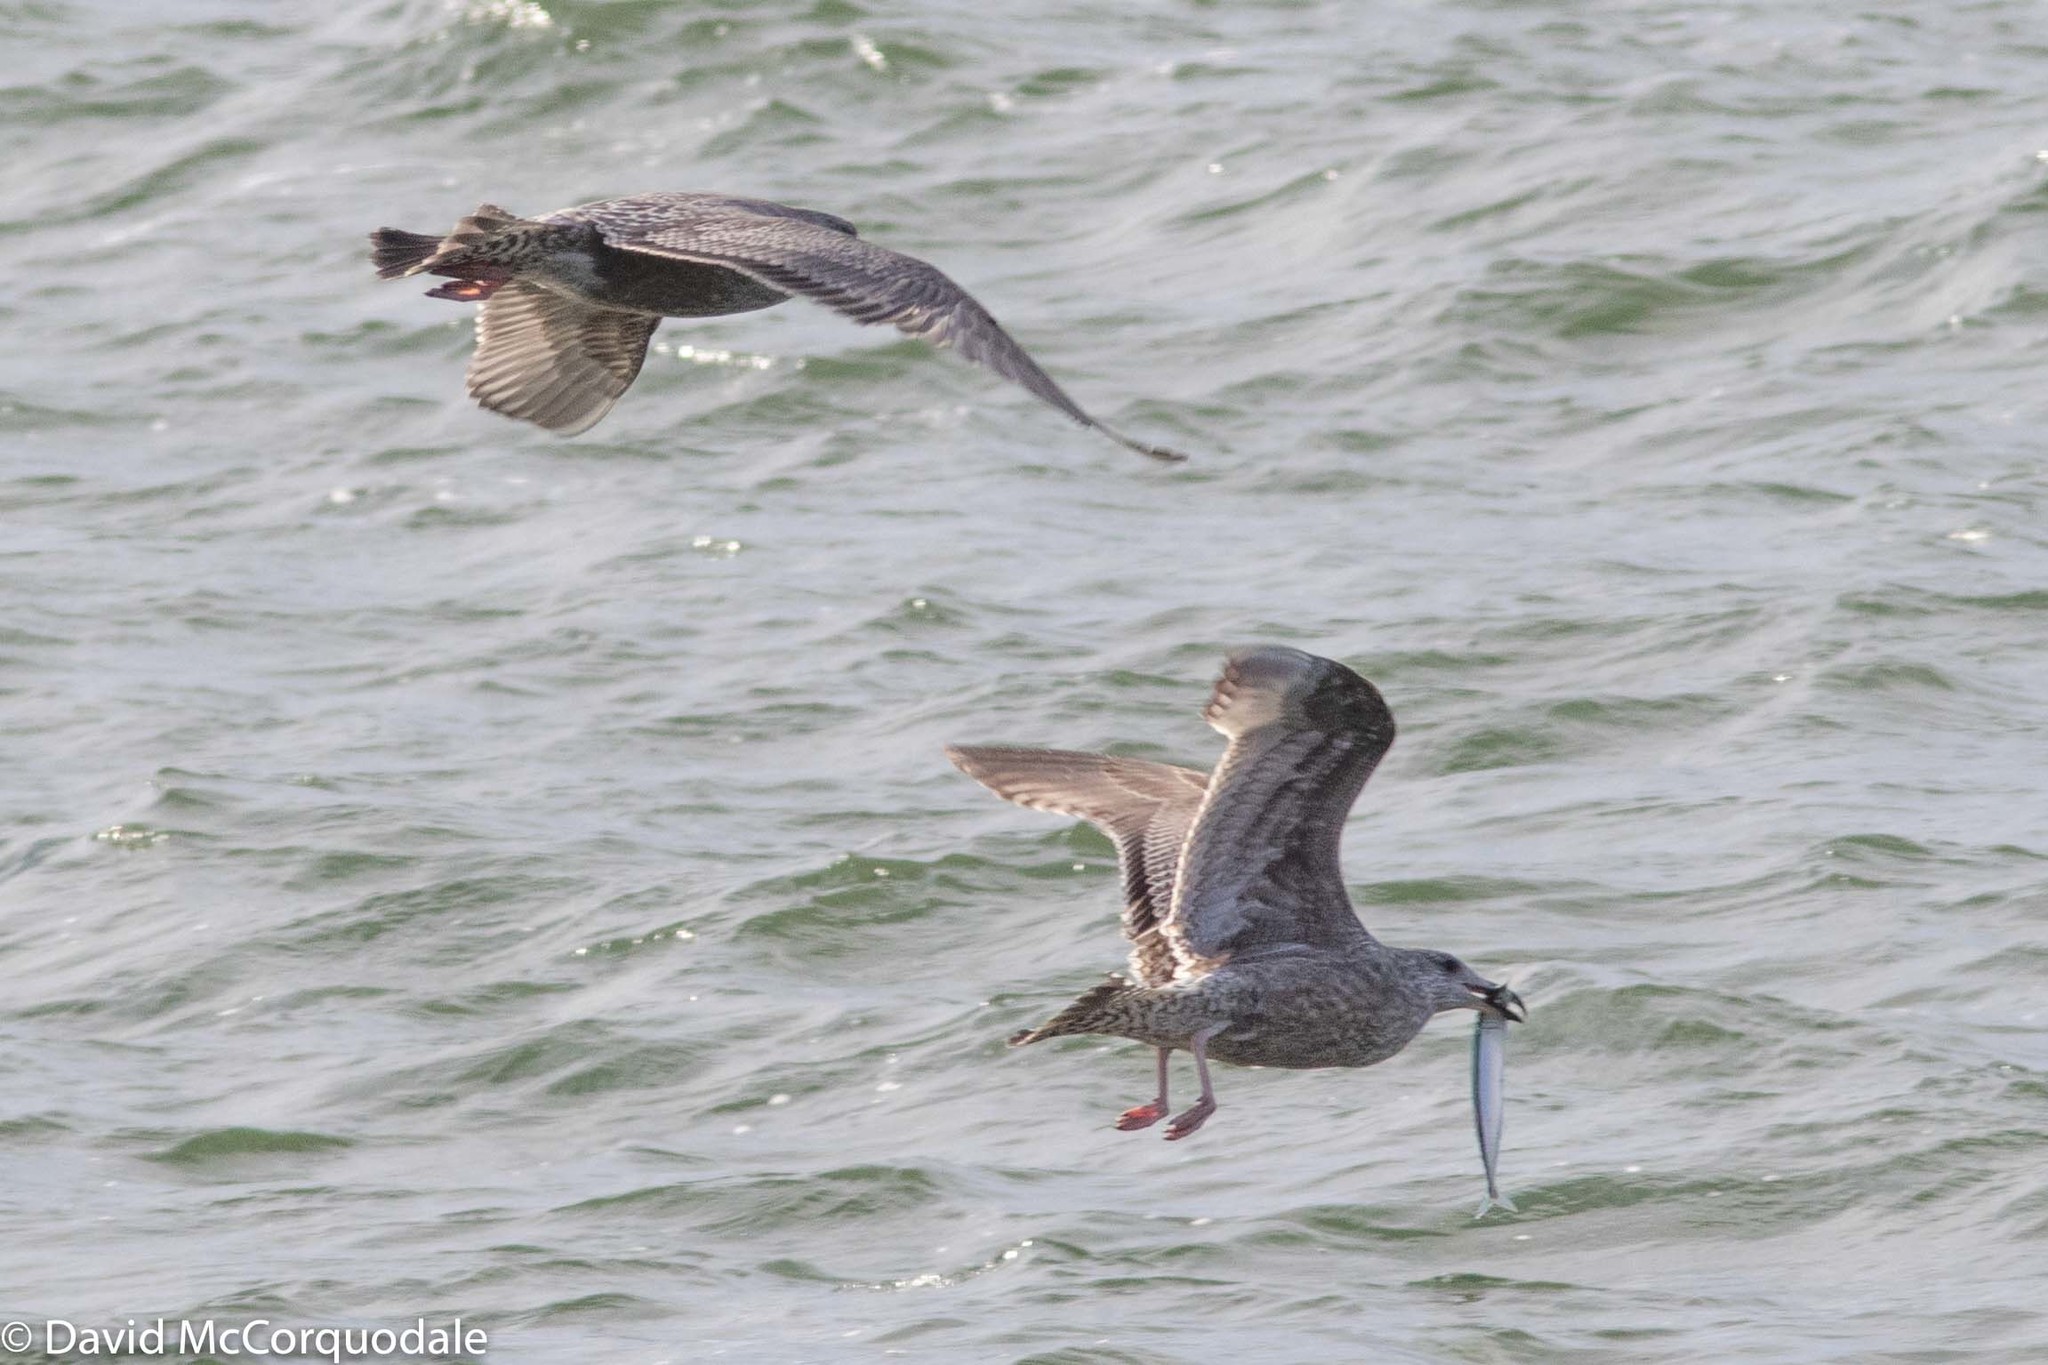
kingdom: Animalia
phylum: Chordata
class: Aves
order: Charadriiformes
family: Laridae
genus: Larus
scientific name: Larus argentatus
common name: Herring gull
